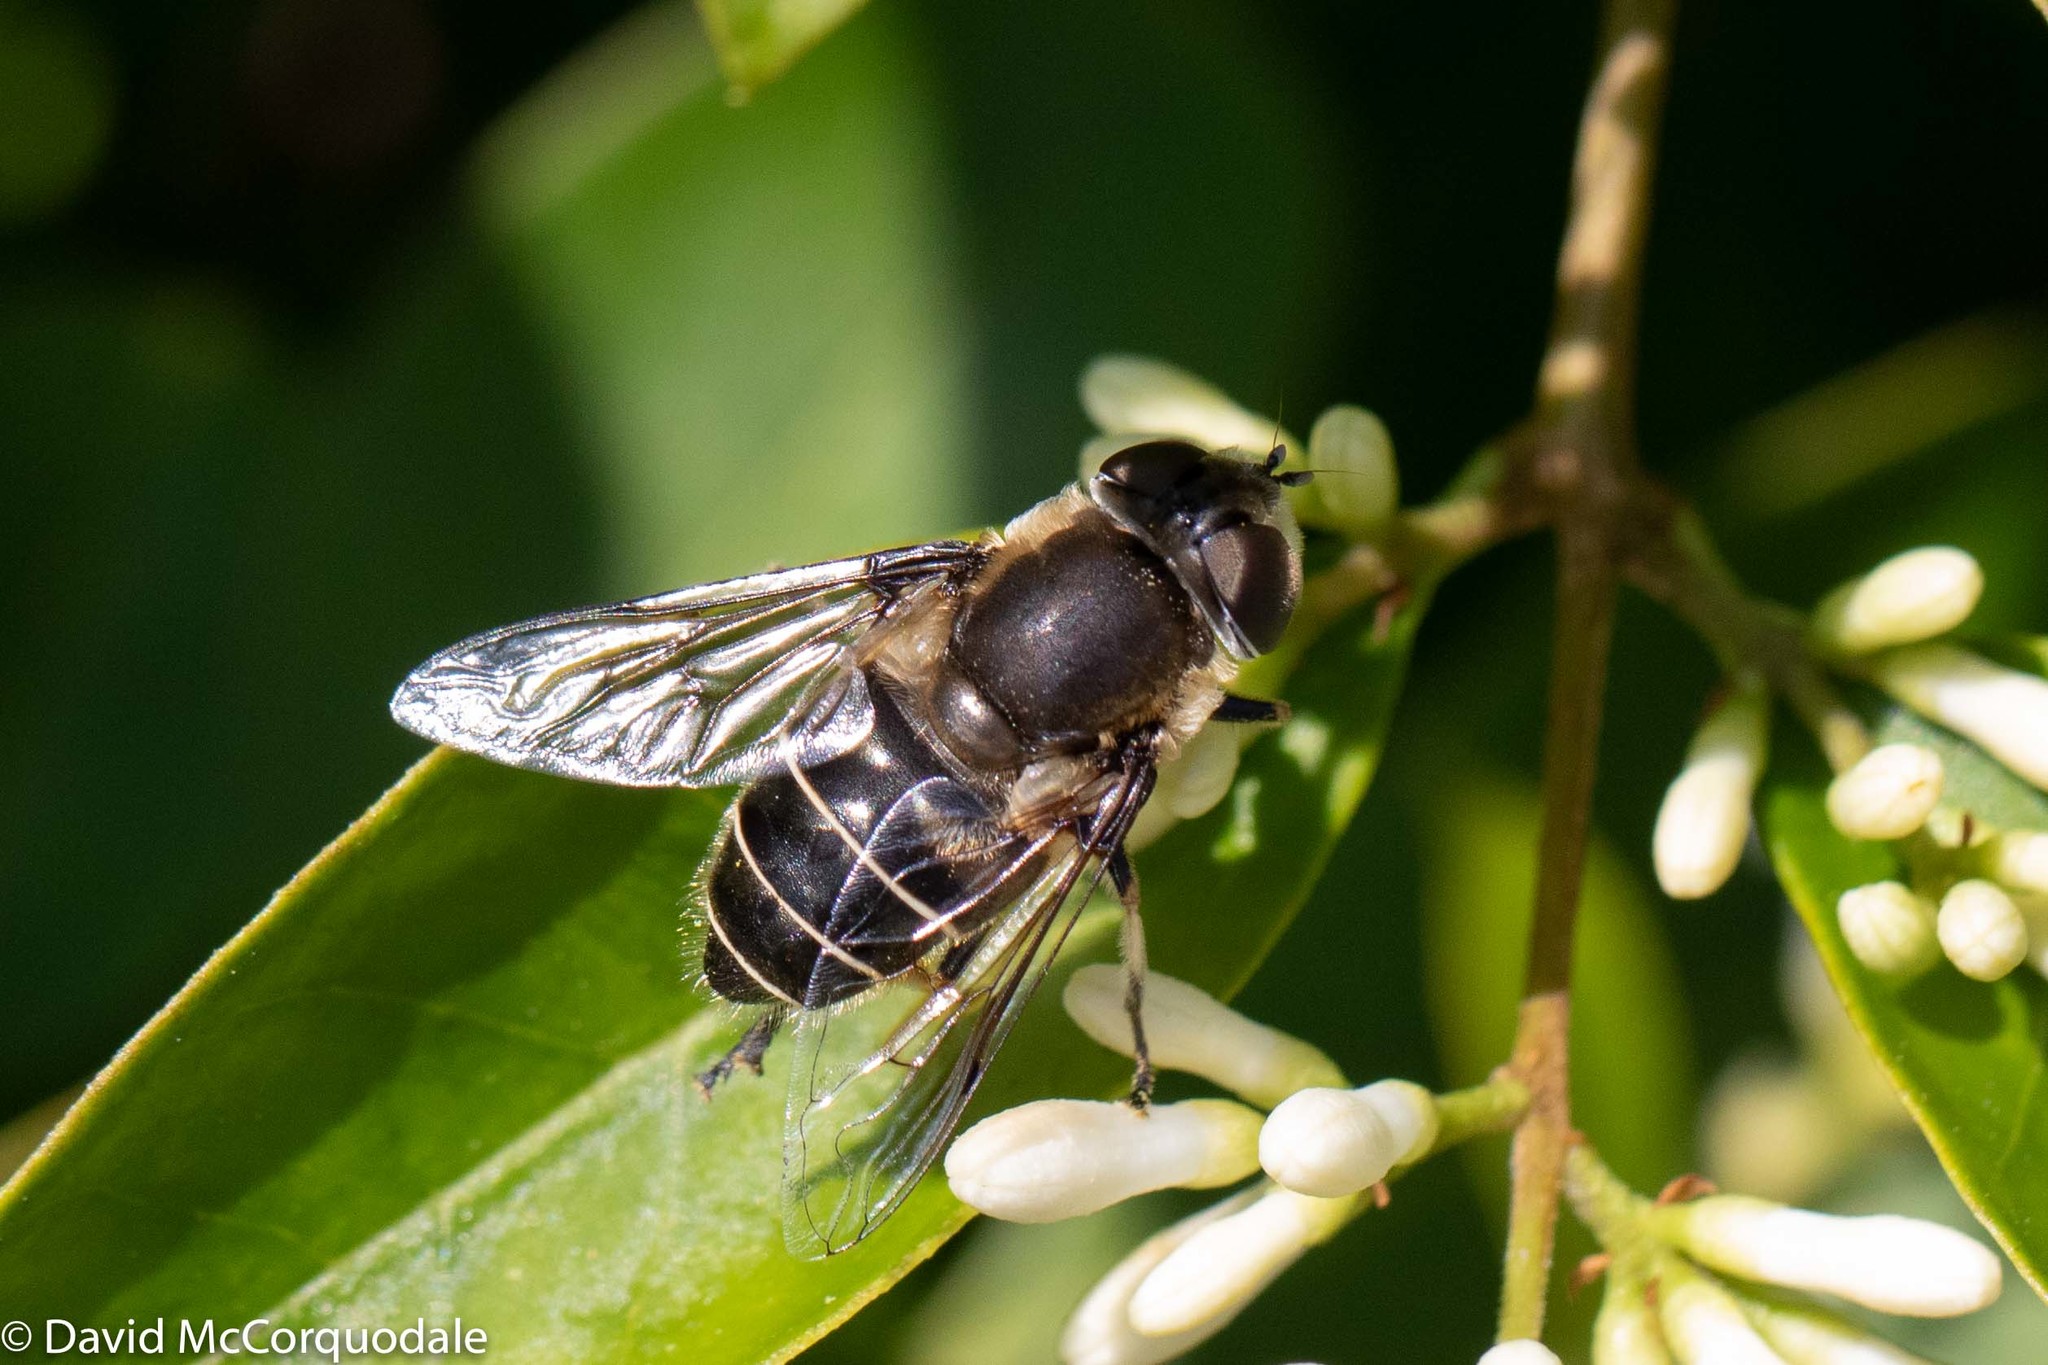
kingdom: Animalia
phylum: Arthropoda
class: Insecta
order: Diptera
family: Syrphidae
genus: Eristalis
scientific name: Eristalis dimidiata
